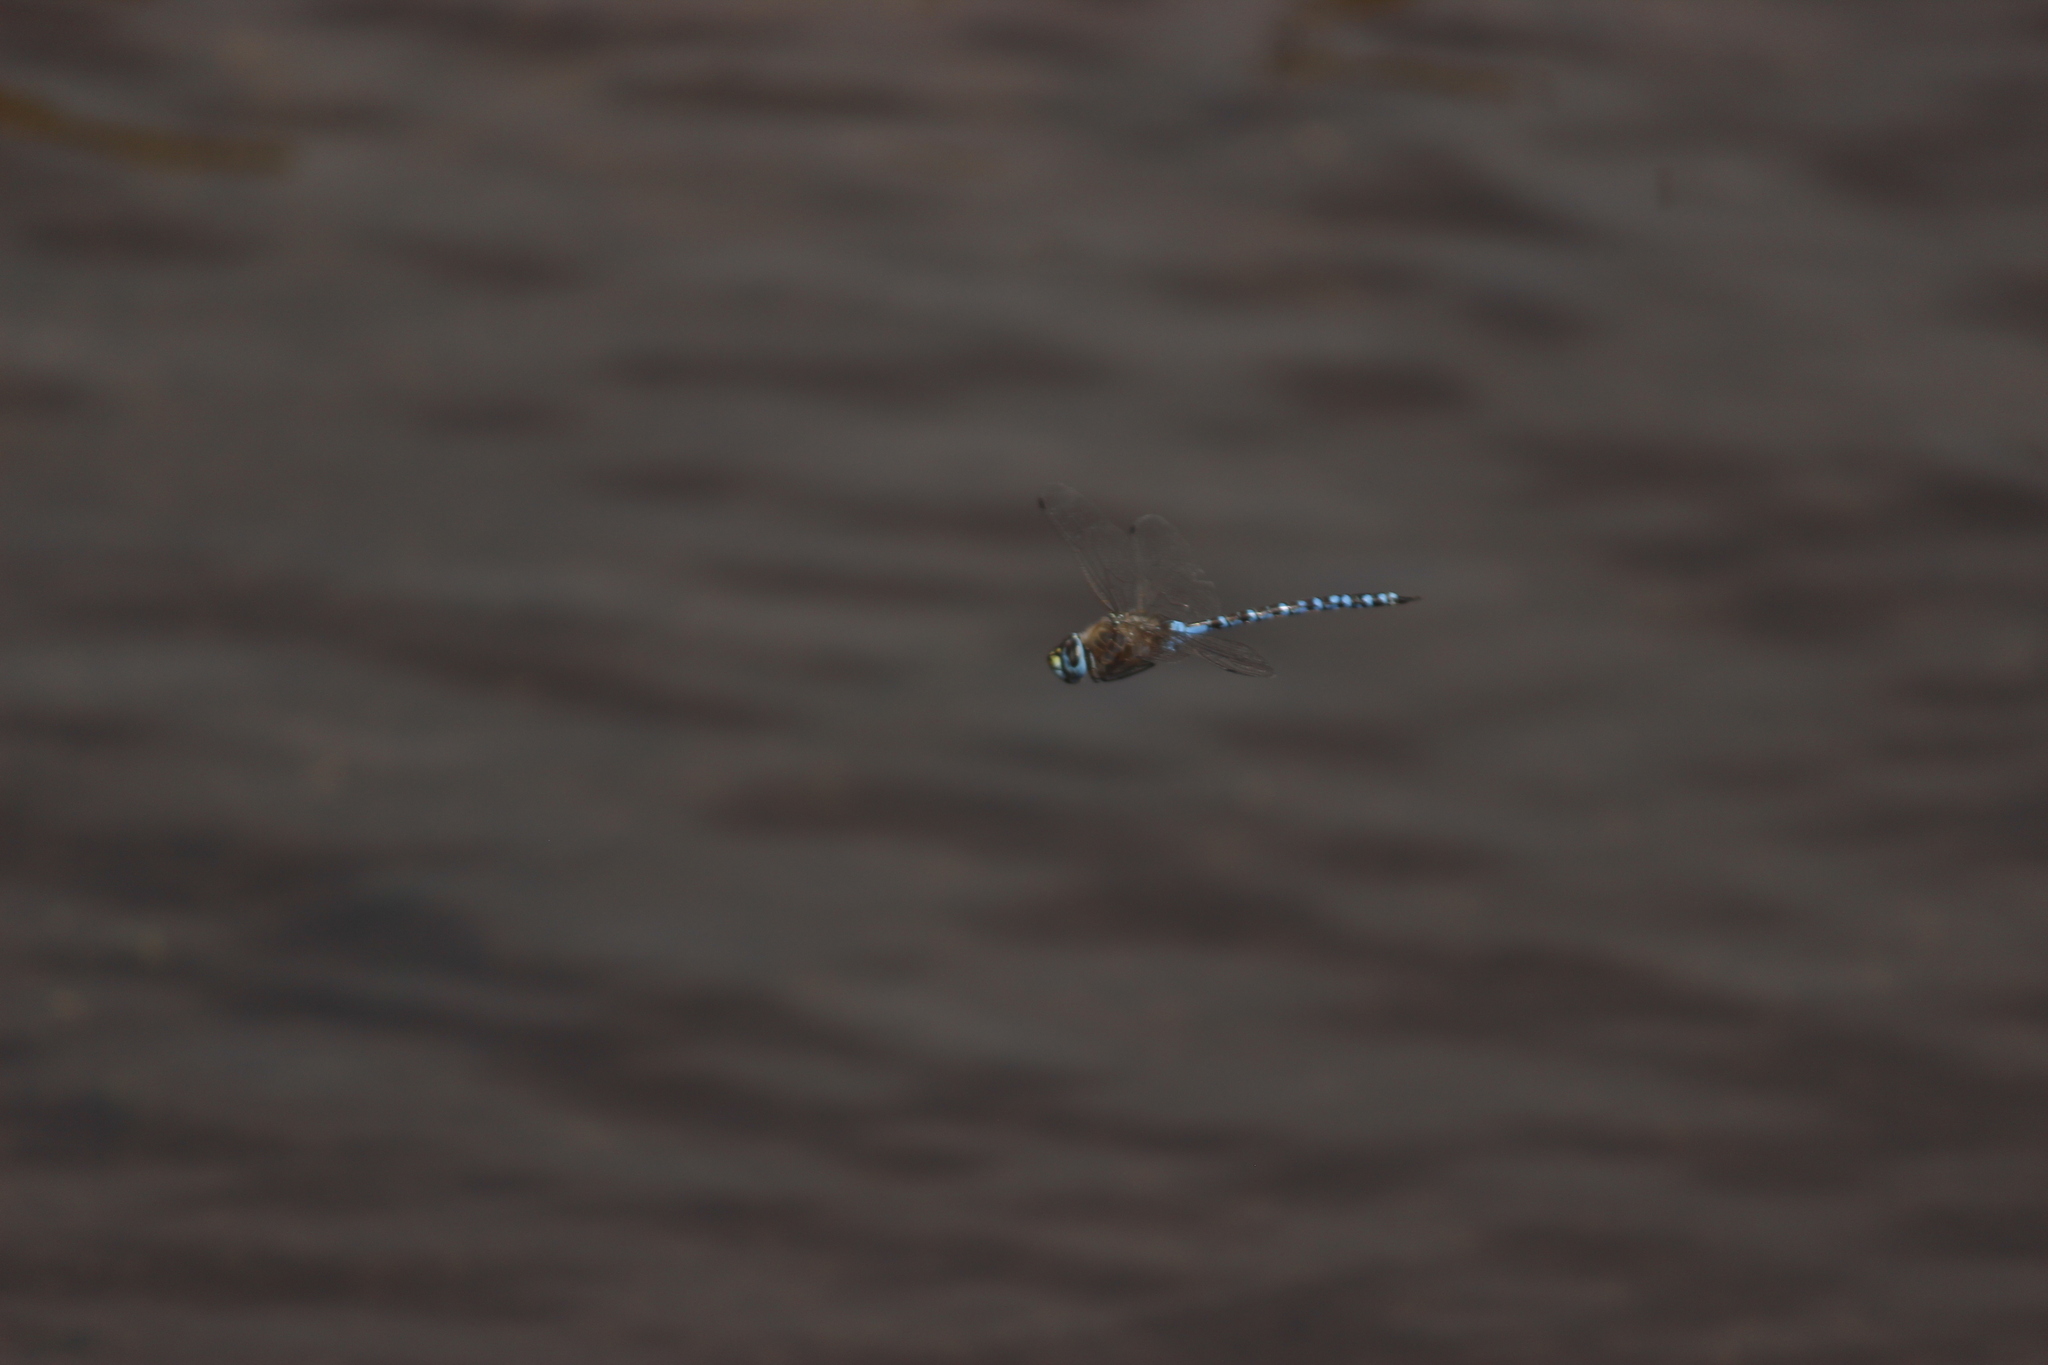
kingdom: Animalia
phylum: Arthropoda
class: Insecta
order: Odonata
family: Aeshnidae
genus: Rhionaeschna
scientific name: Rhionaeschna elsia
